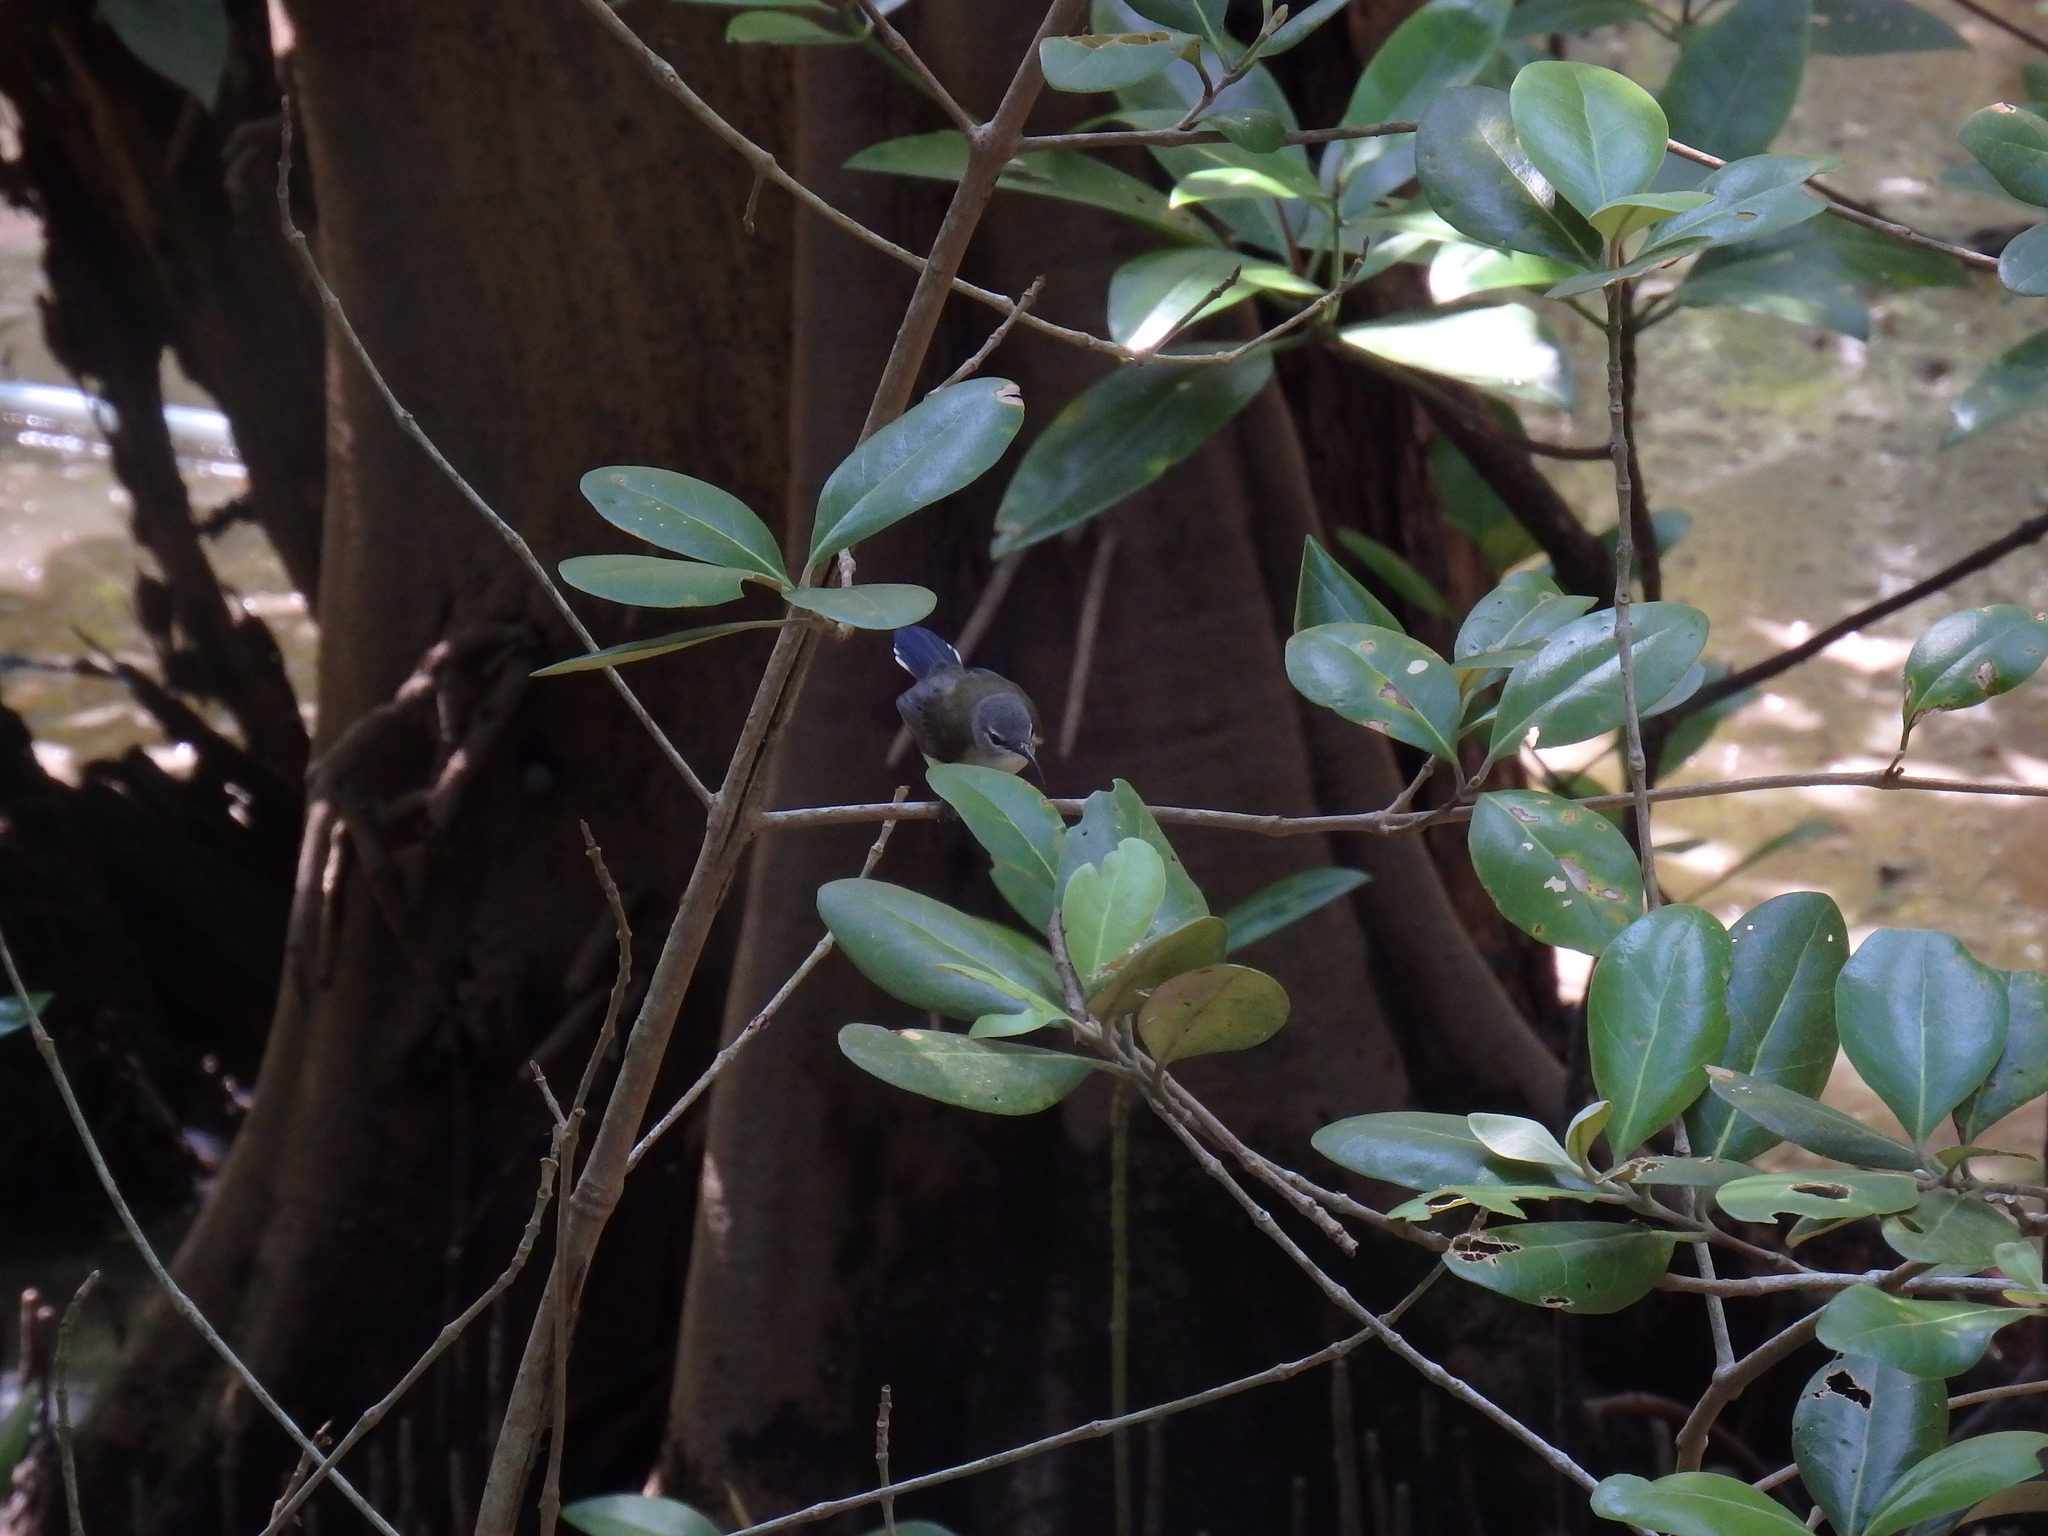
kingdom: Animalia
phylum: Chordata
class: Aves
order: Passeriformes
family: Nectariniidae
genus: Leptocoma
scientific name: Leptocoma calcostetha
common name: Copper-throated sunbird
